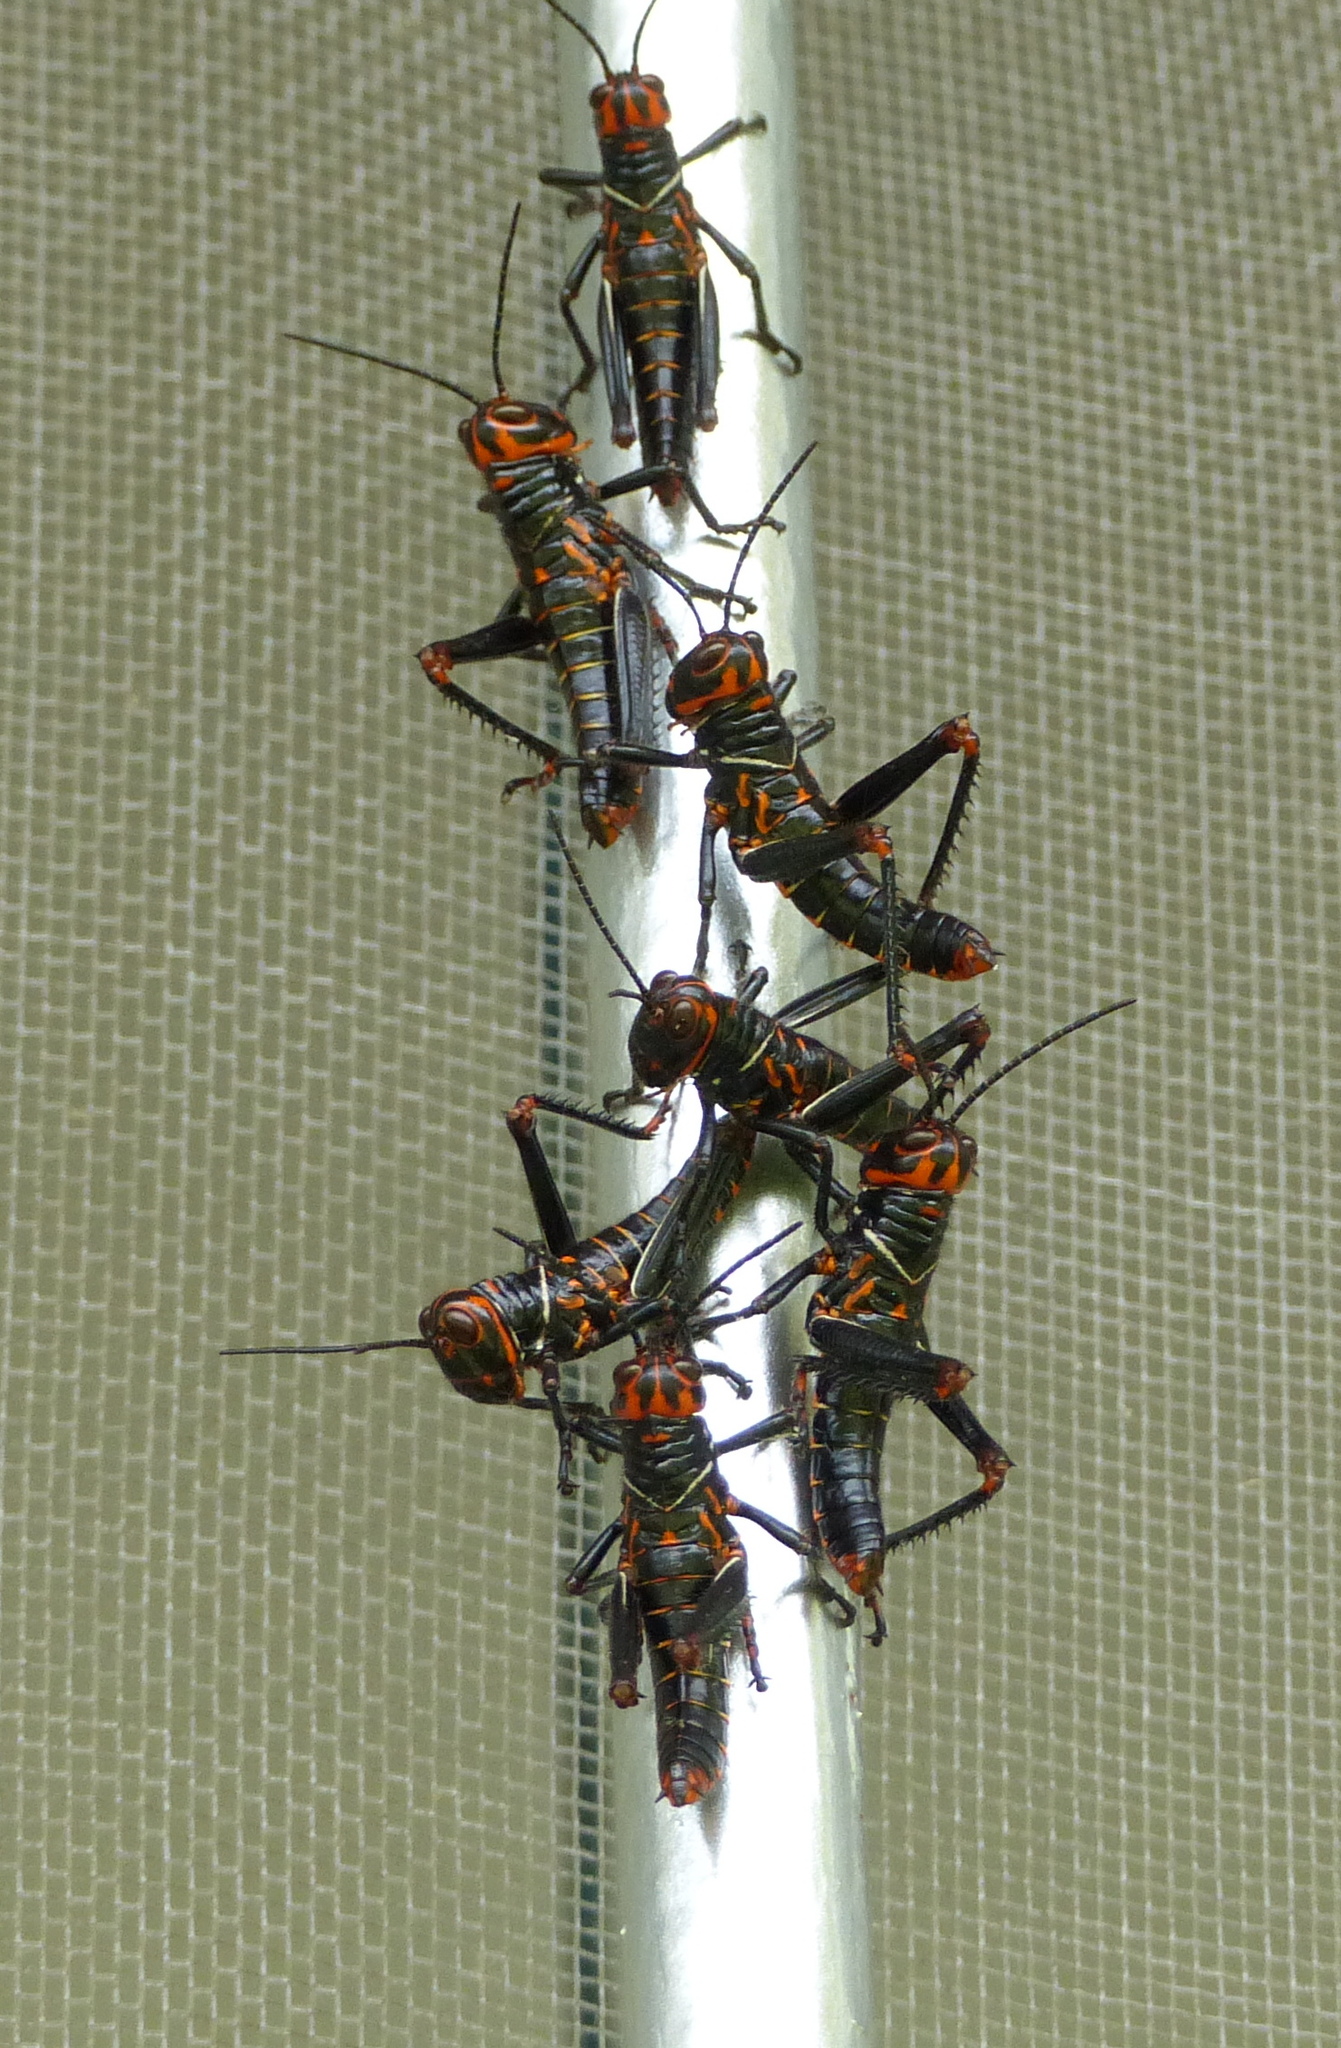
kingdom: Animalia
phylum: Arthropoda
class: Insecta
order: Orthoptera
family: Romaleidae
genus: Tropidacris
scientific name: Tropidacris collaris
